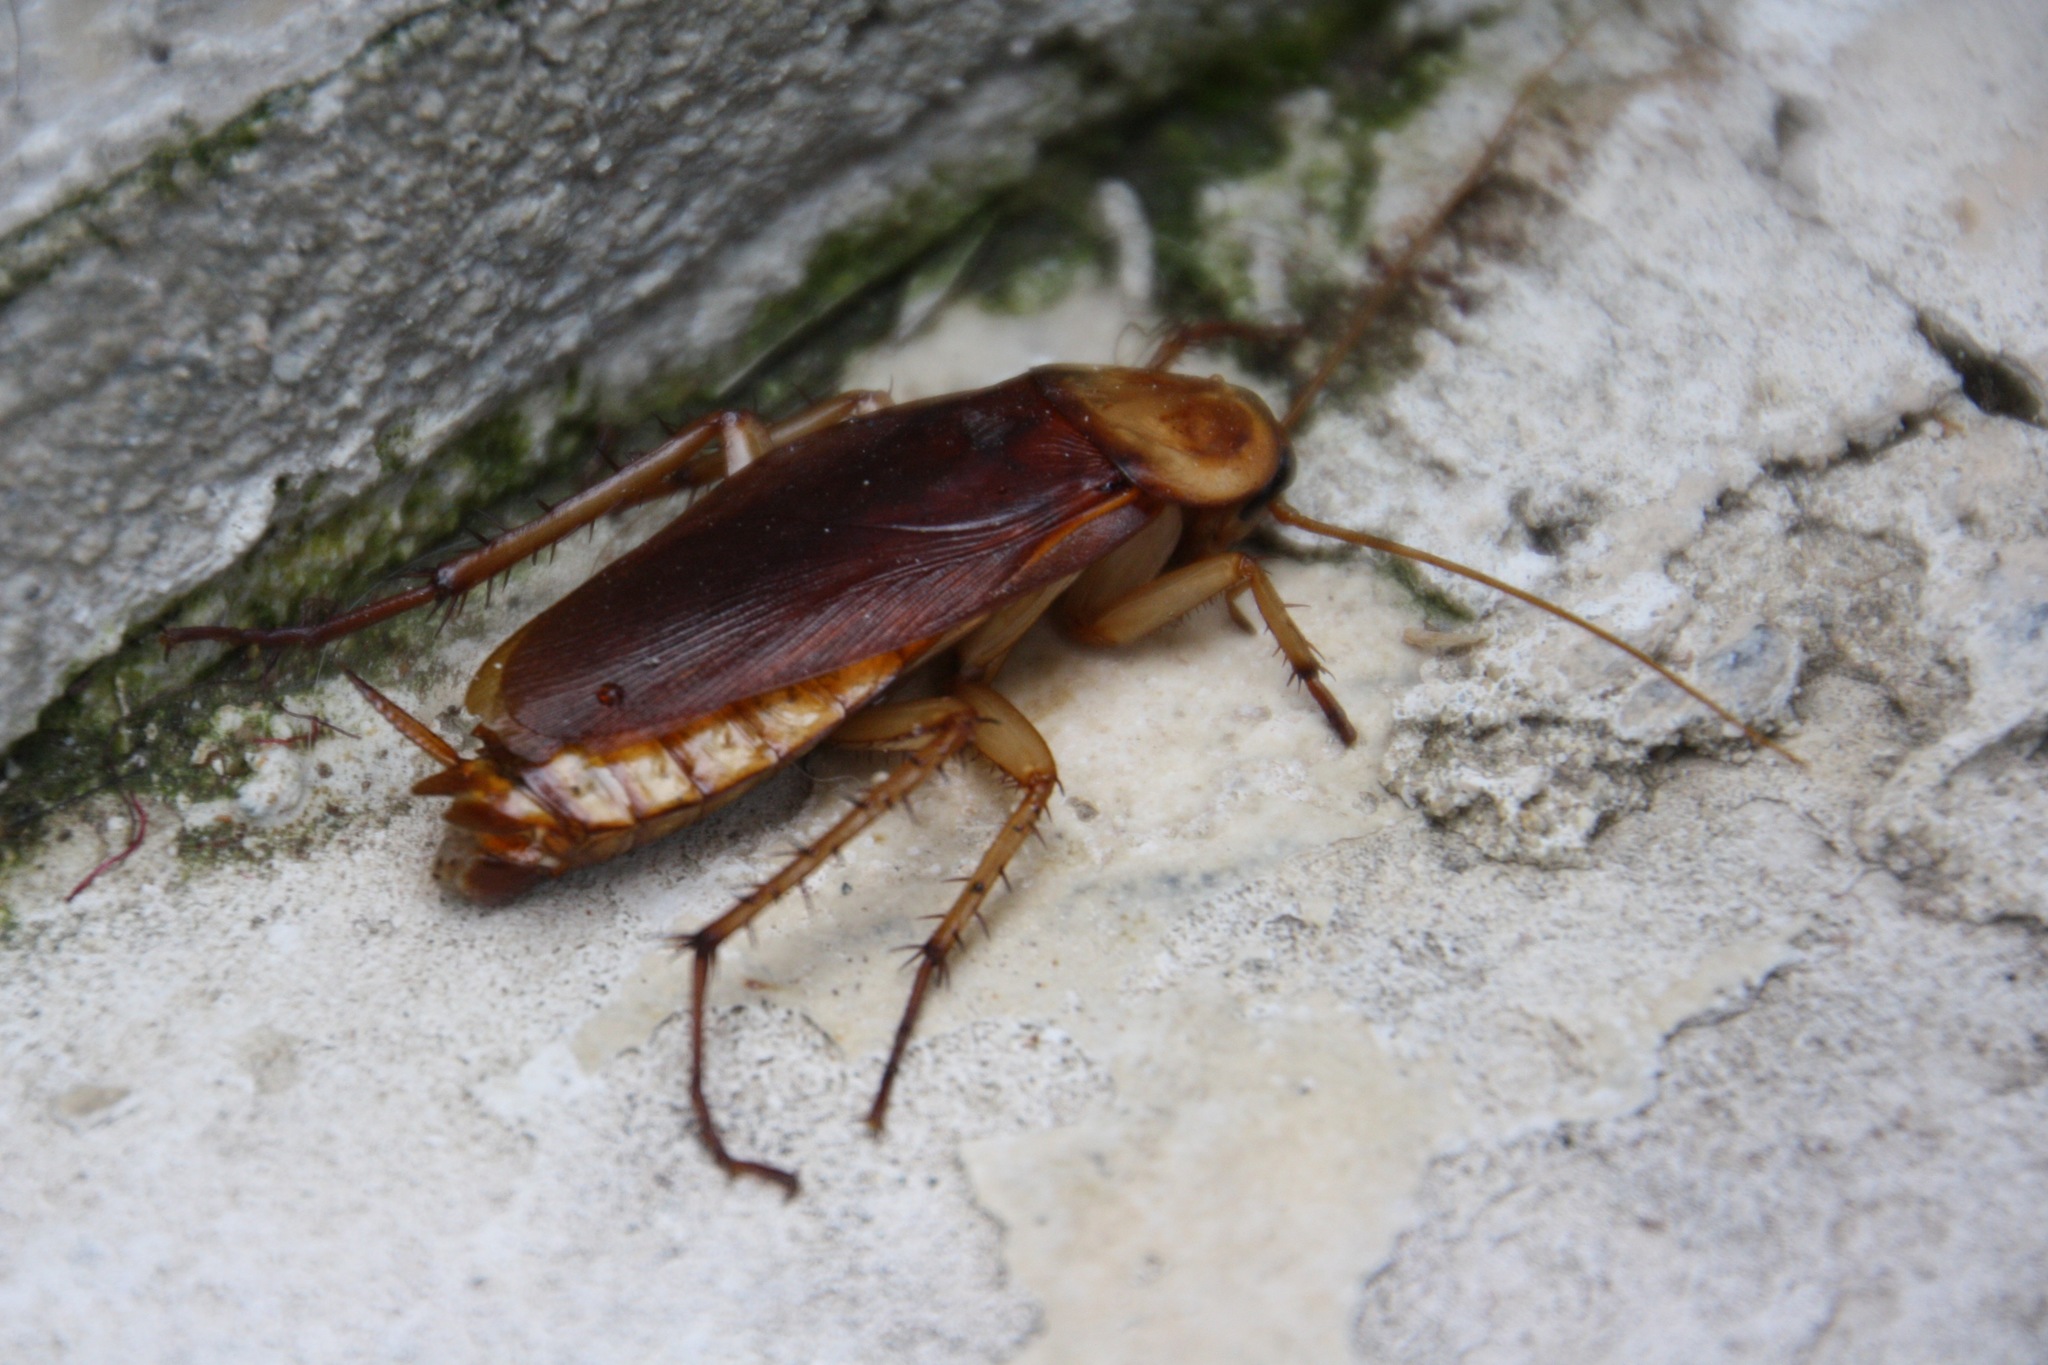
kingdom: Animalia
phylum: Arthropoda
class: Insecta
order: Blattodea
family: Blattidae
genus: Periplaneta
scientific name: Periplaneta americana
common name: American cockroach
